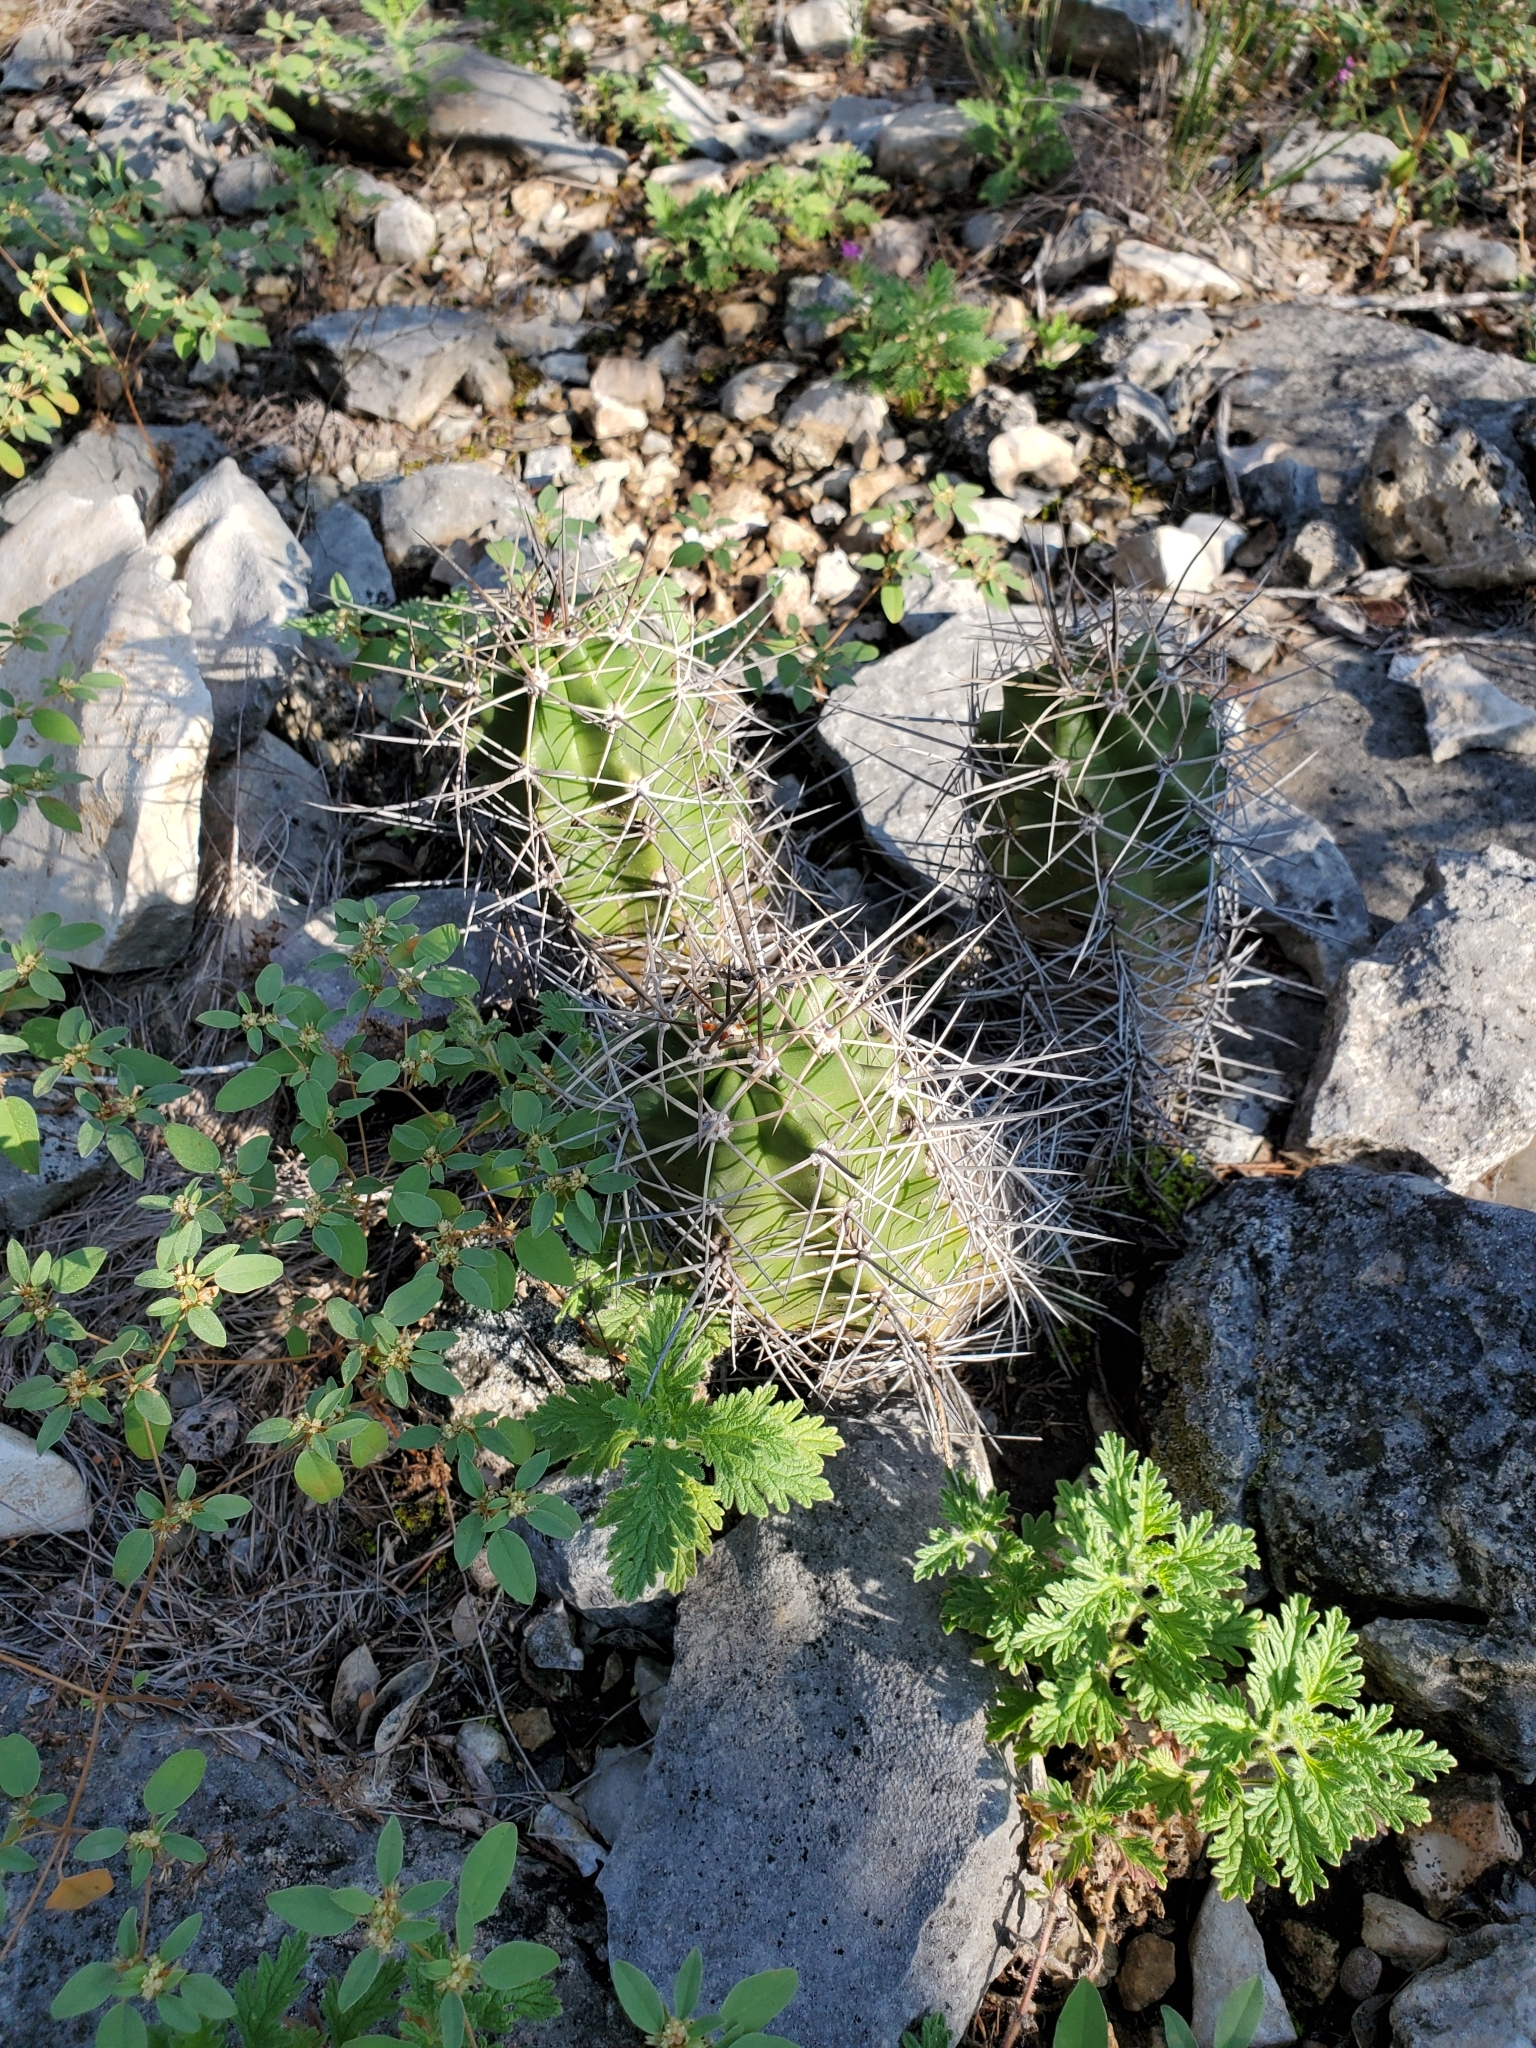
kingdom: Plantae
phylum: Tracheophyta
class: Magnoliopsida
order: Caryophyllales
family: Cactaceae
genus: Echinocereus
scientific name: Echinocereus coccineus
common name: Scarlet hedgehog cactus
